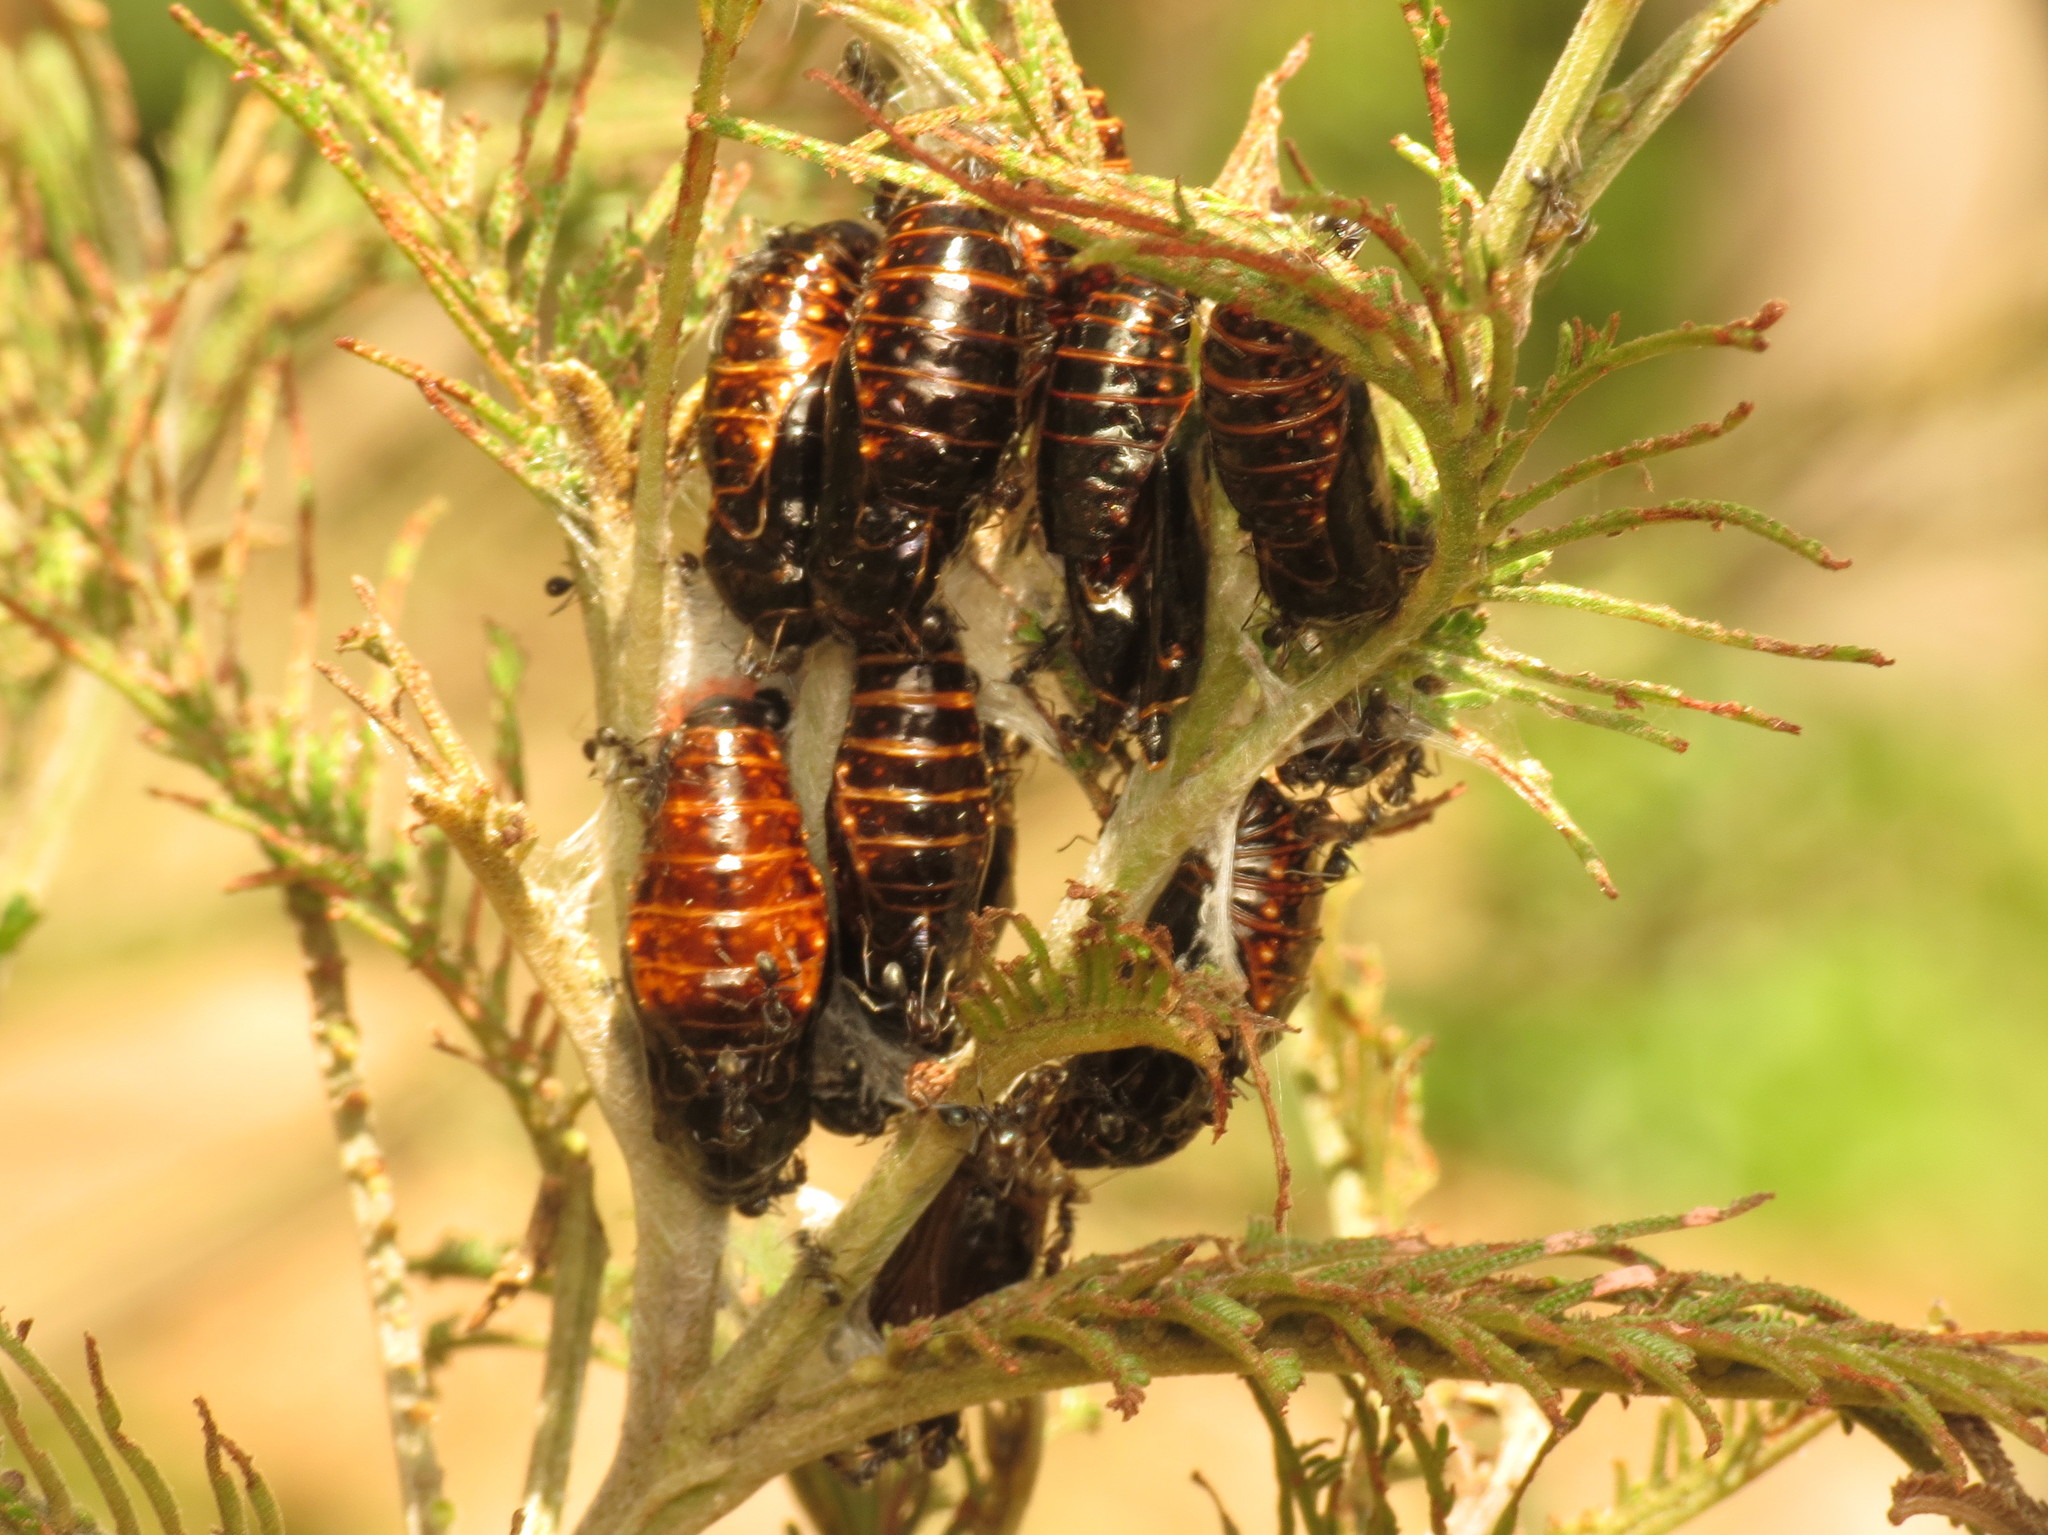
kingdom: Animalia
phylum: Arthropoda
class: Insecta
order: Lepidoptera
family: Lycaenidae
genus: Jalmenus
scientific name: Jalmenus evagoras
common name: Common imperial blue
